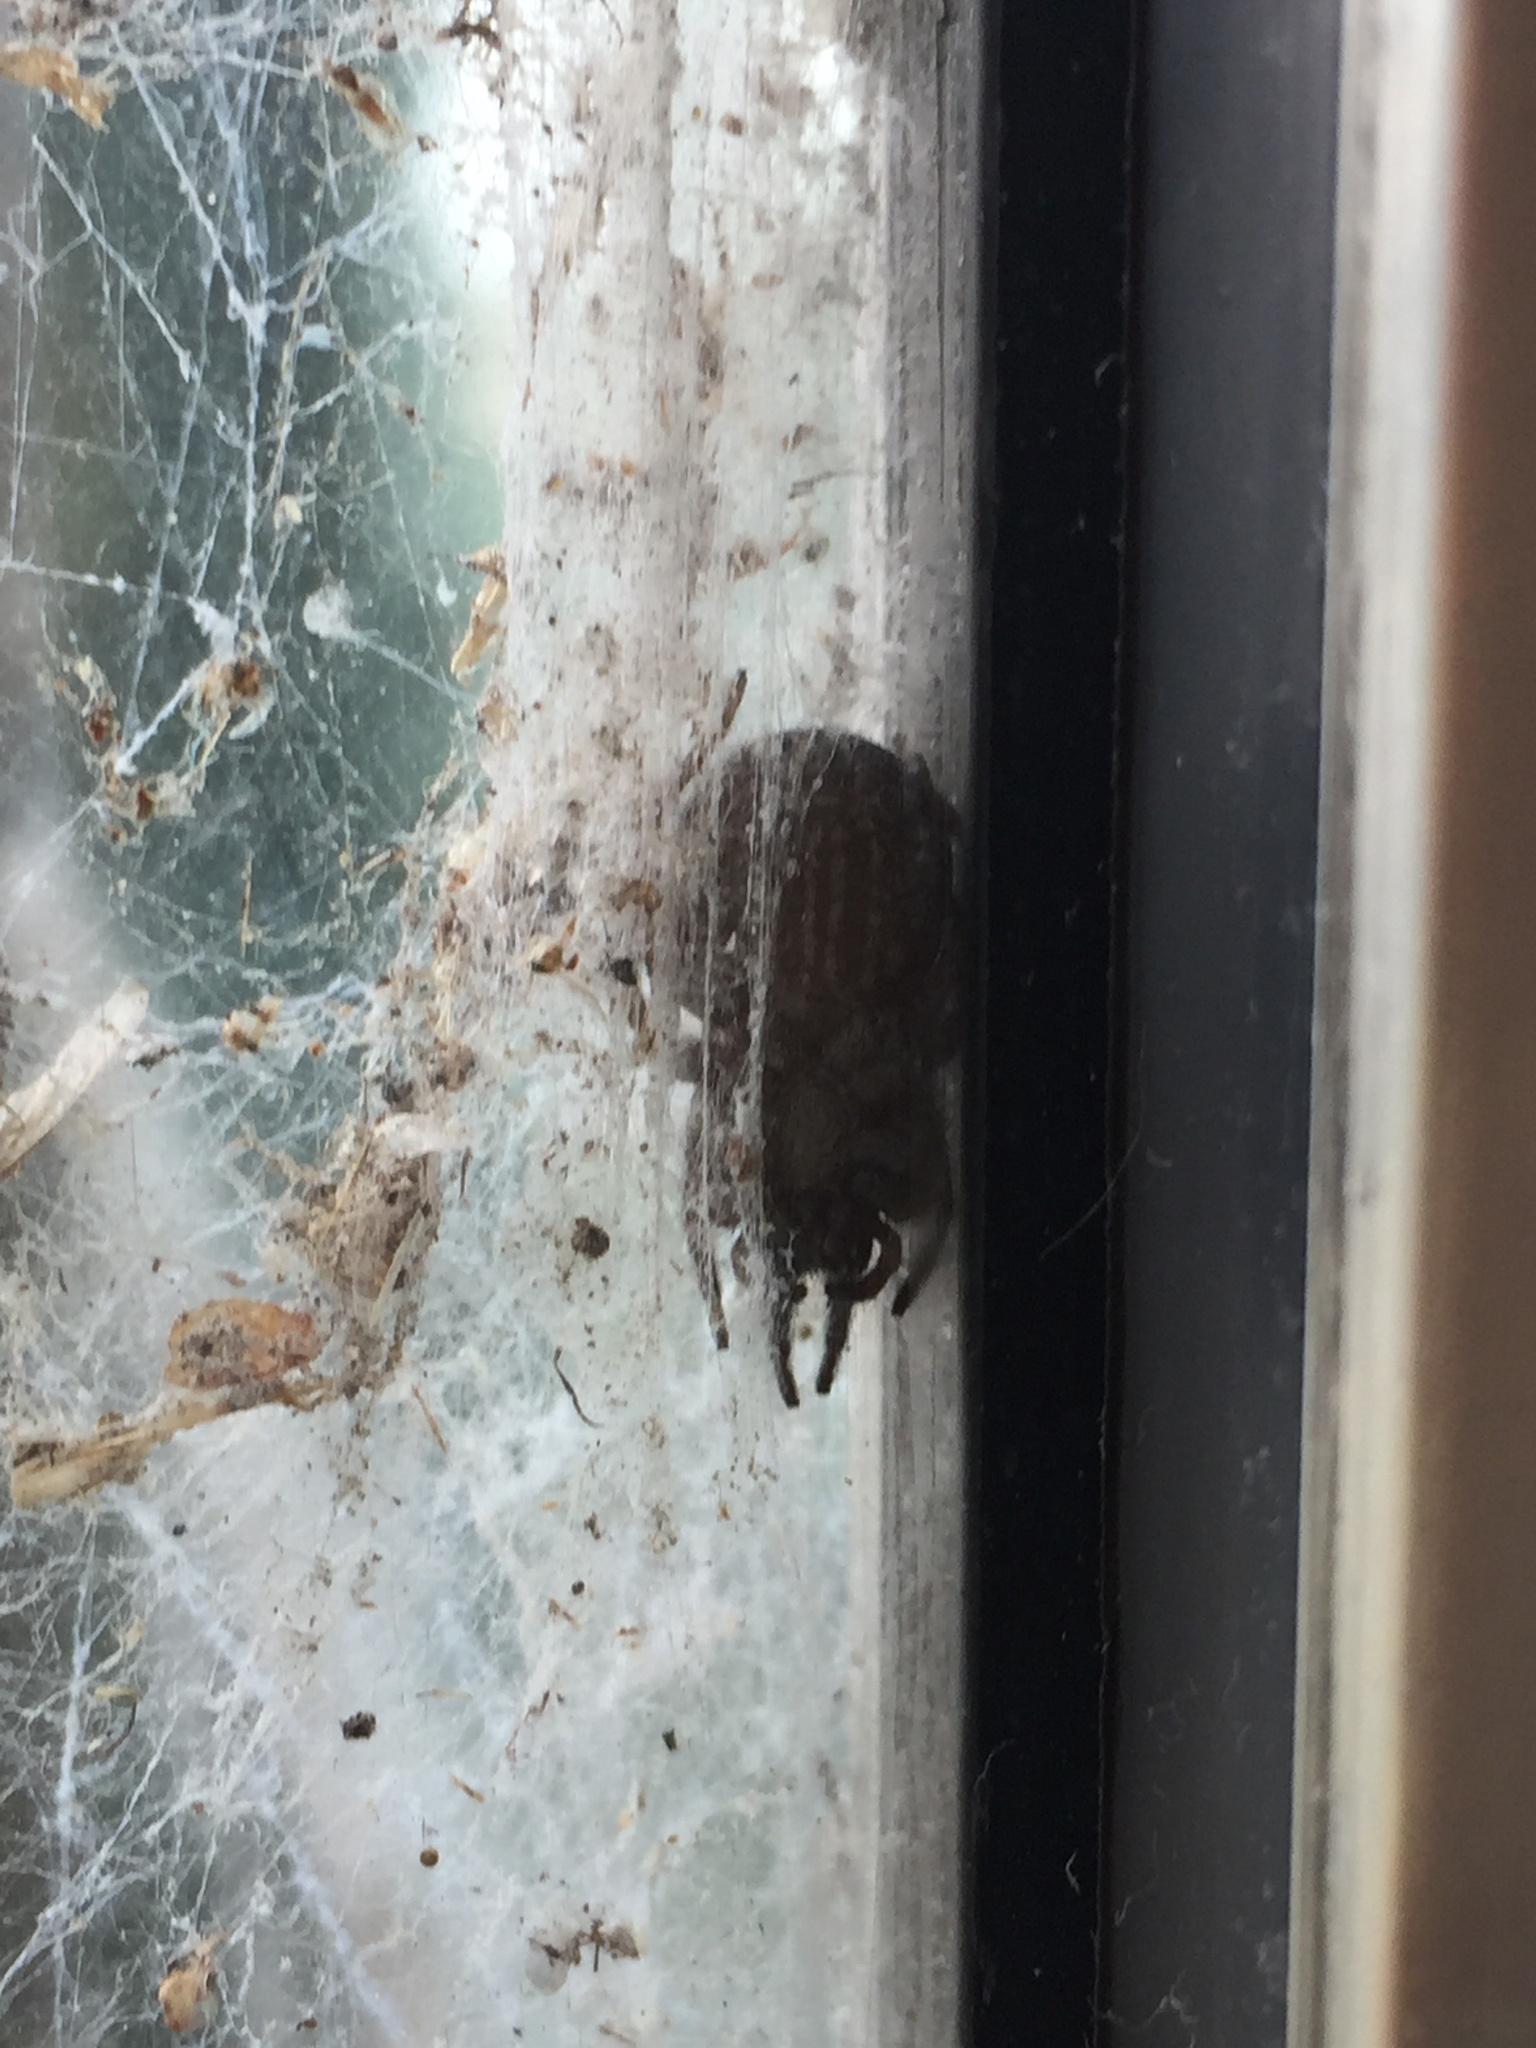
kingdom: Animalia
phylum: Arthropoda
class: Arachnida
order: Araneae
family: Desidae
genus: Badumna
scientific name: Badumna longinqua
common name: Gray house spider
